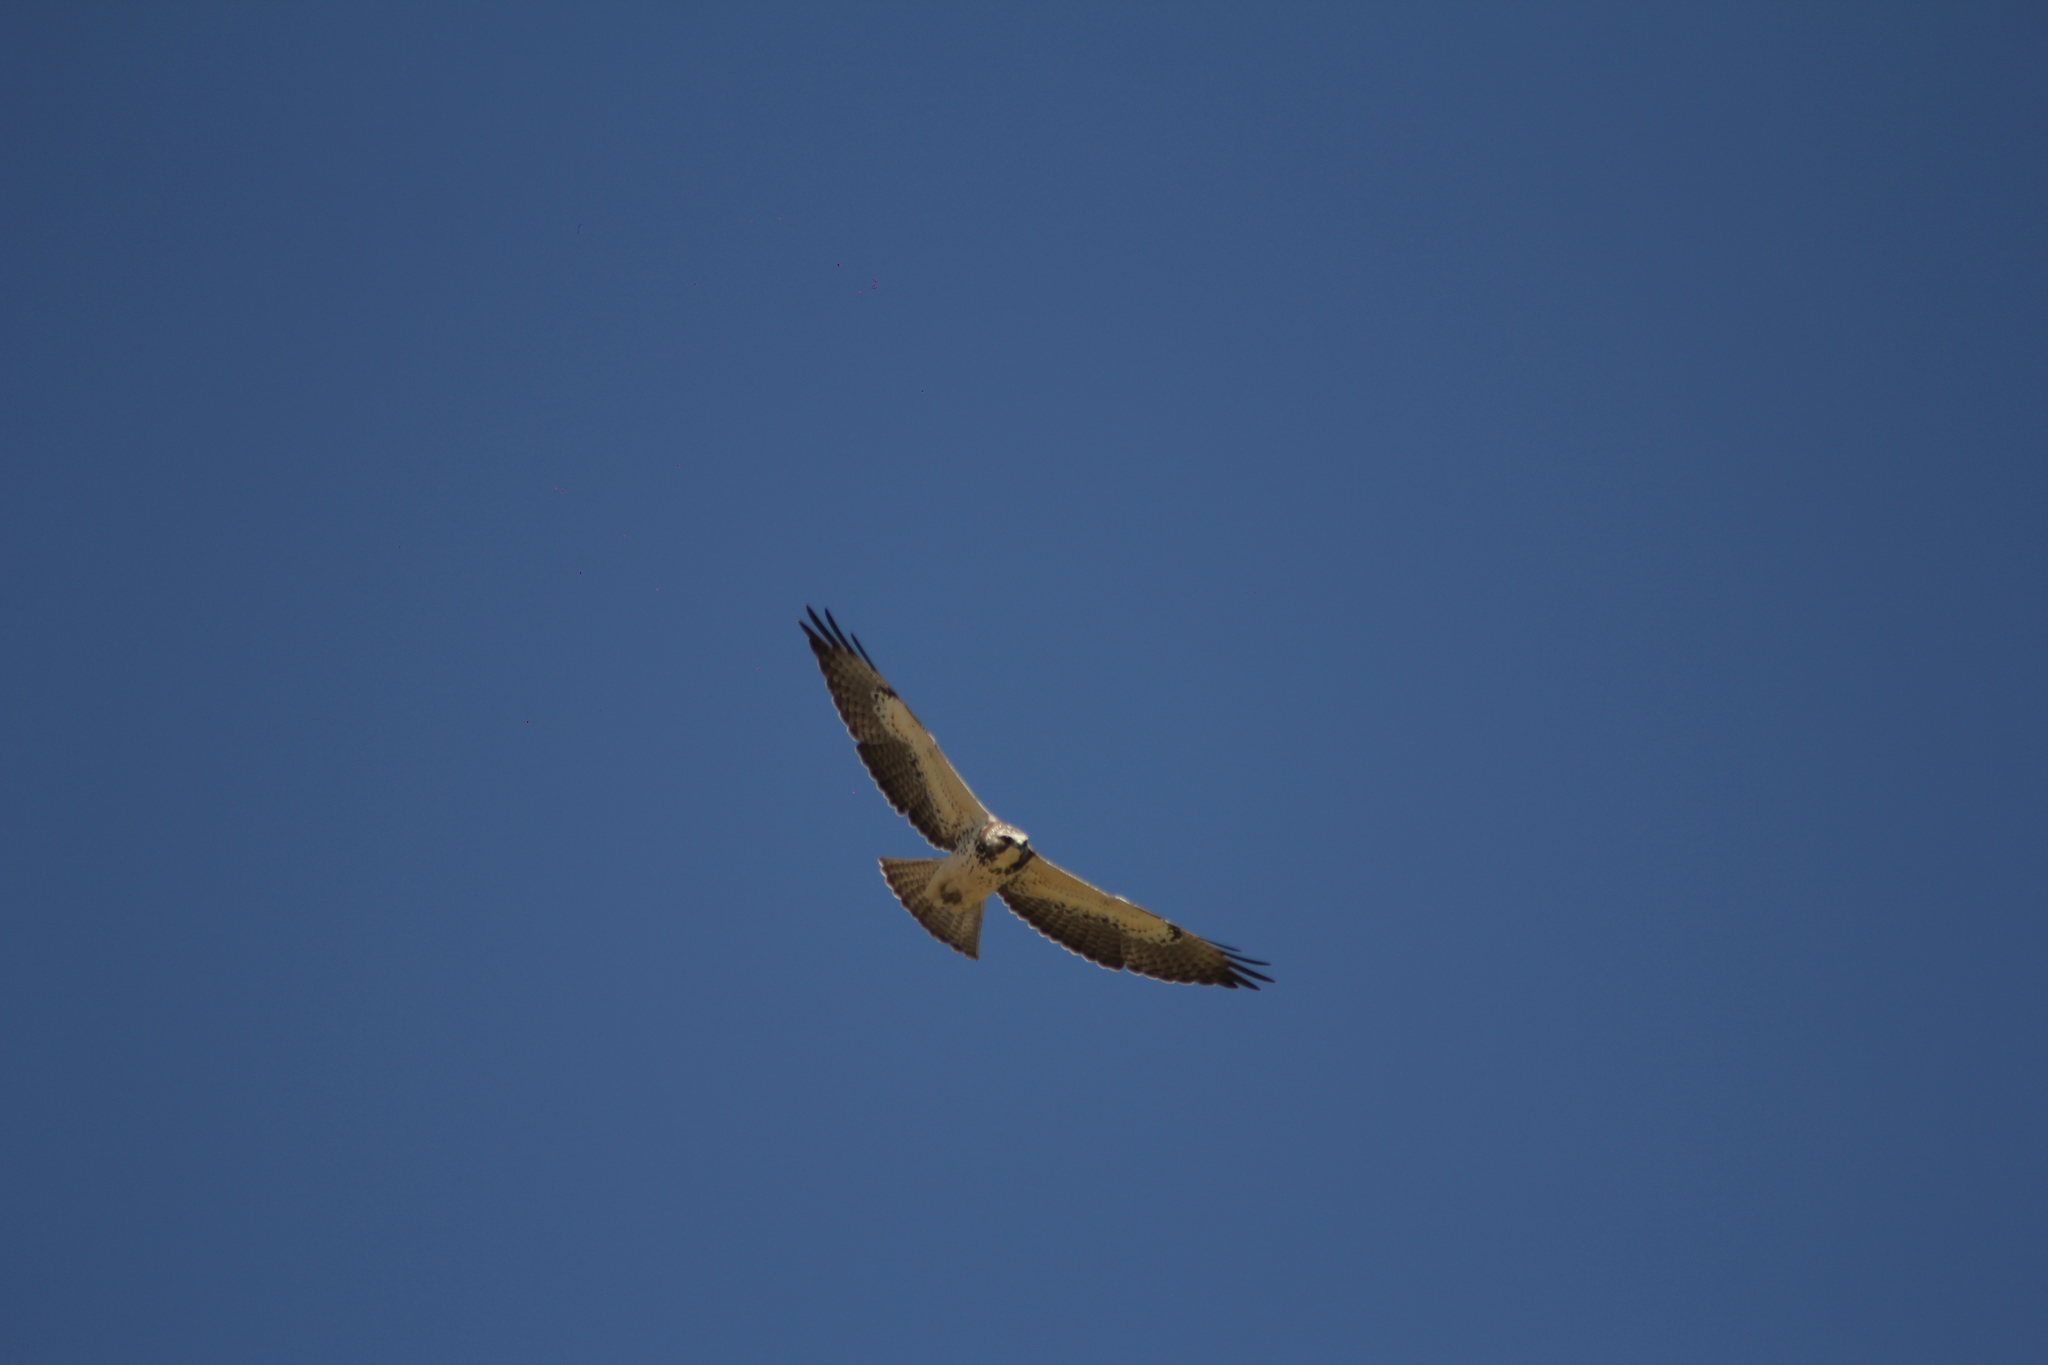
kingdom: Animalia
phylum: Chordata
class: Aves
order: Accipitriformes
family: Accipitridae
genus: Buteo
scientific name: Buteo swainsoni
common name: Swainson's hawk
